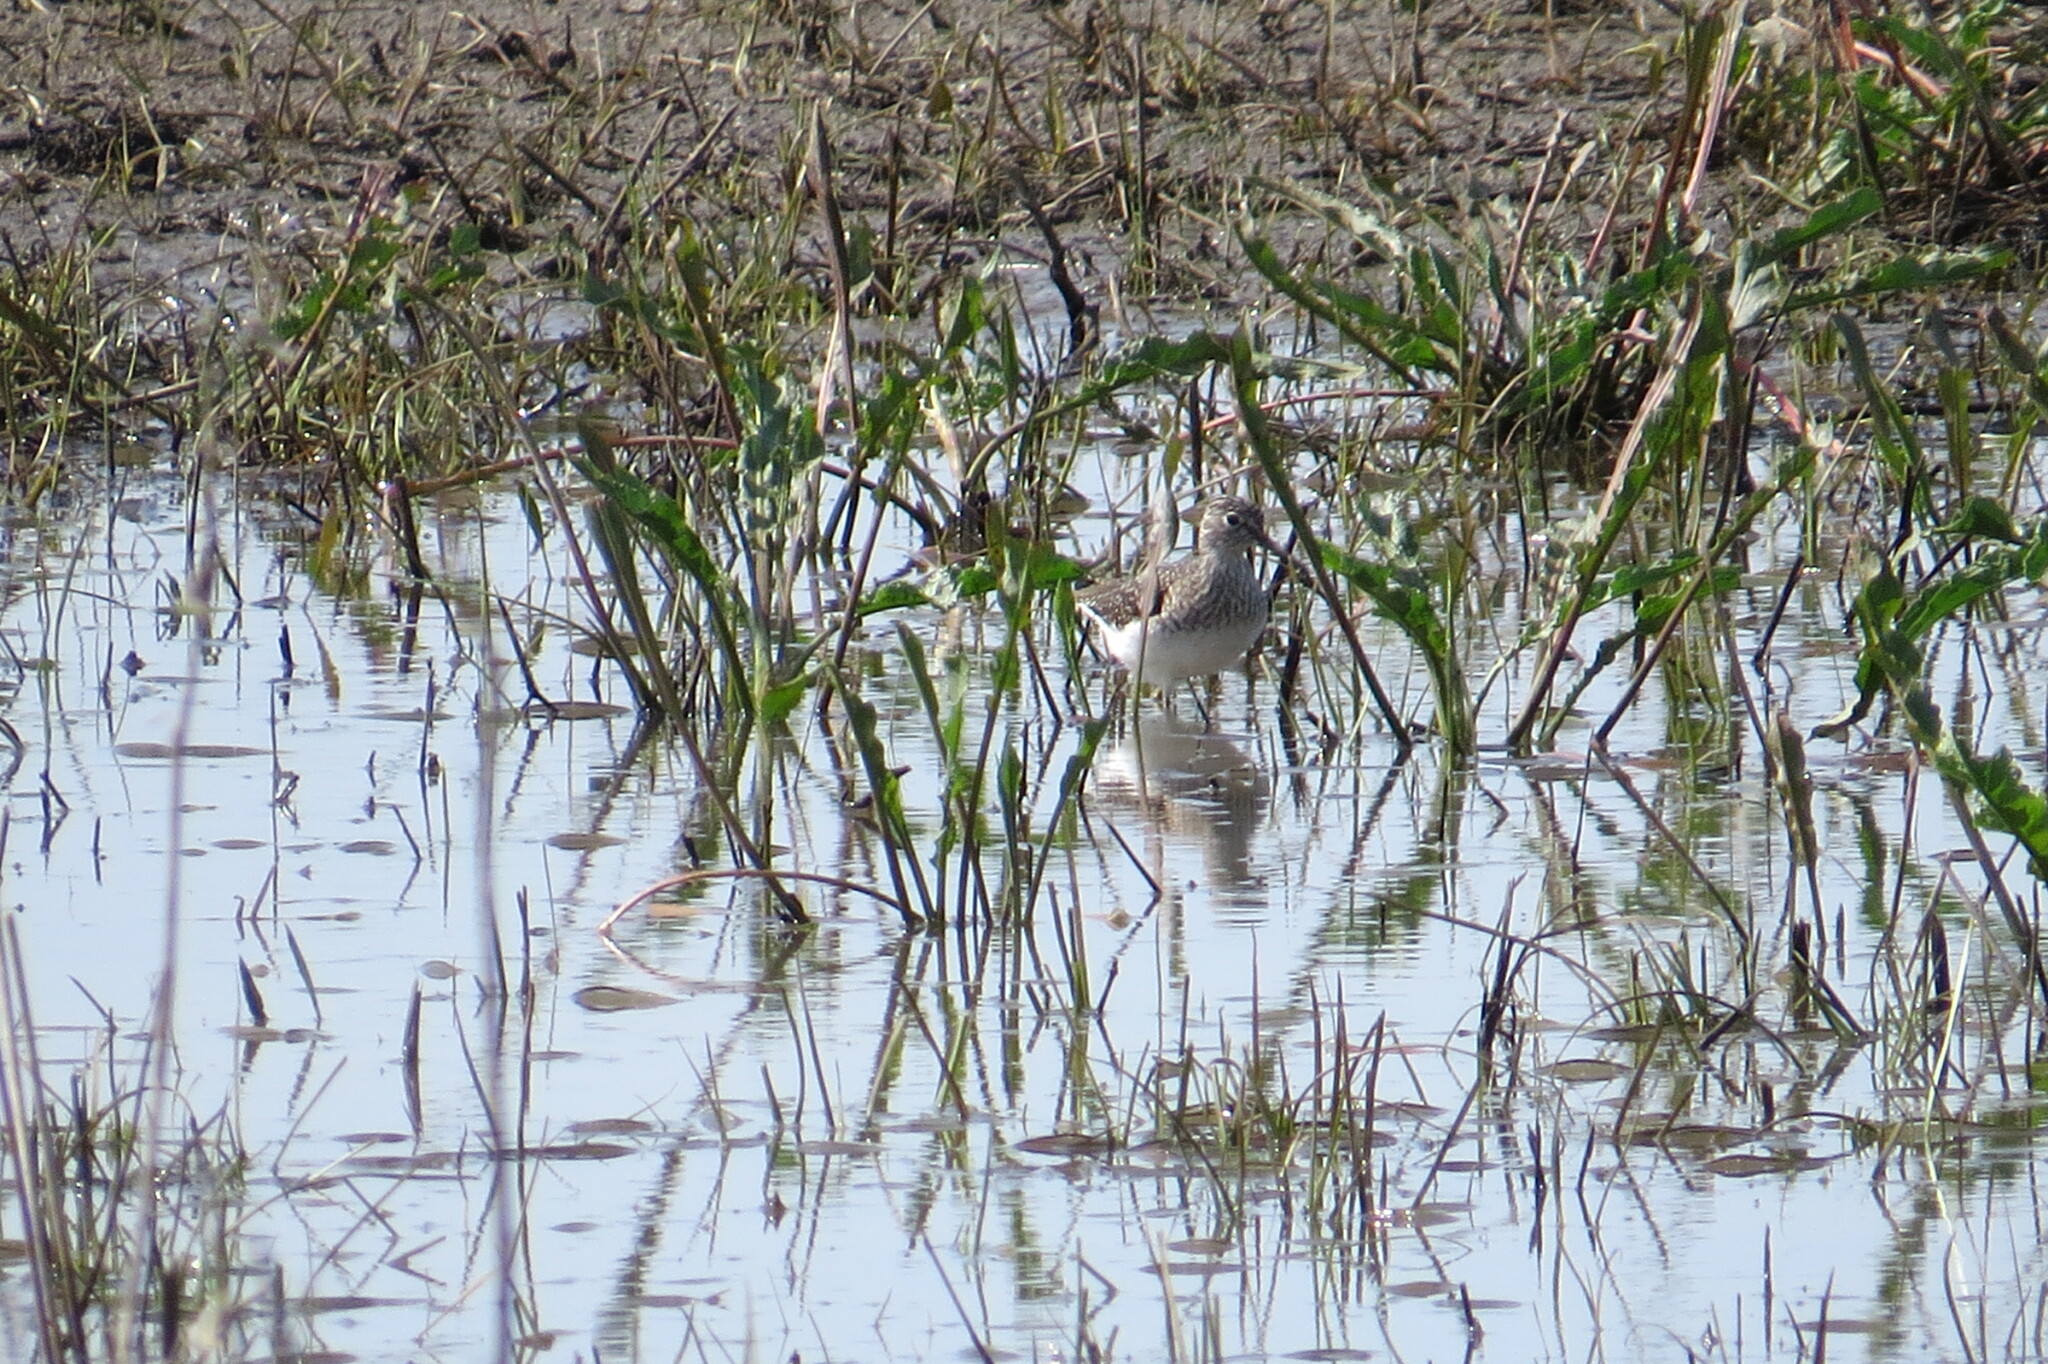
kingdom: Animalia
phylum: Chordata
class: Aves
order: Charadriiformes
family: Scolopacidae
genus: Tringa
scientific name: Tringa solitaria
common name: Solitary sandpiper
